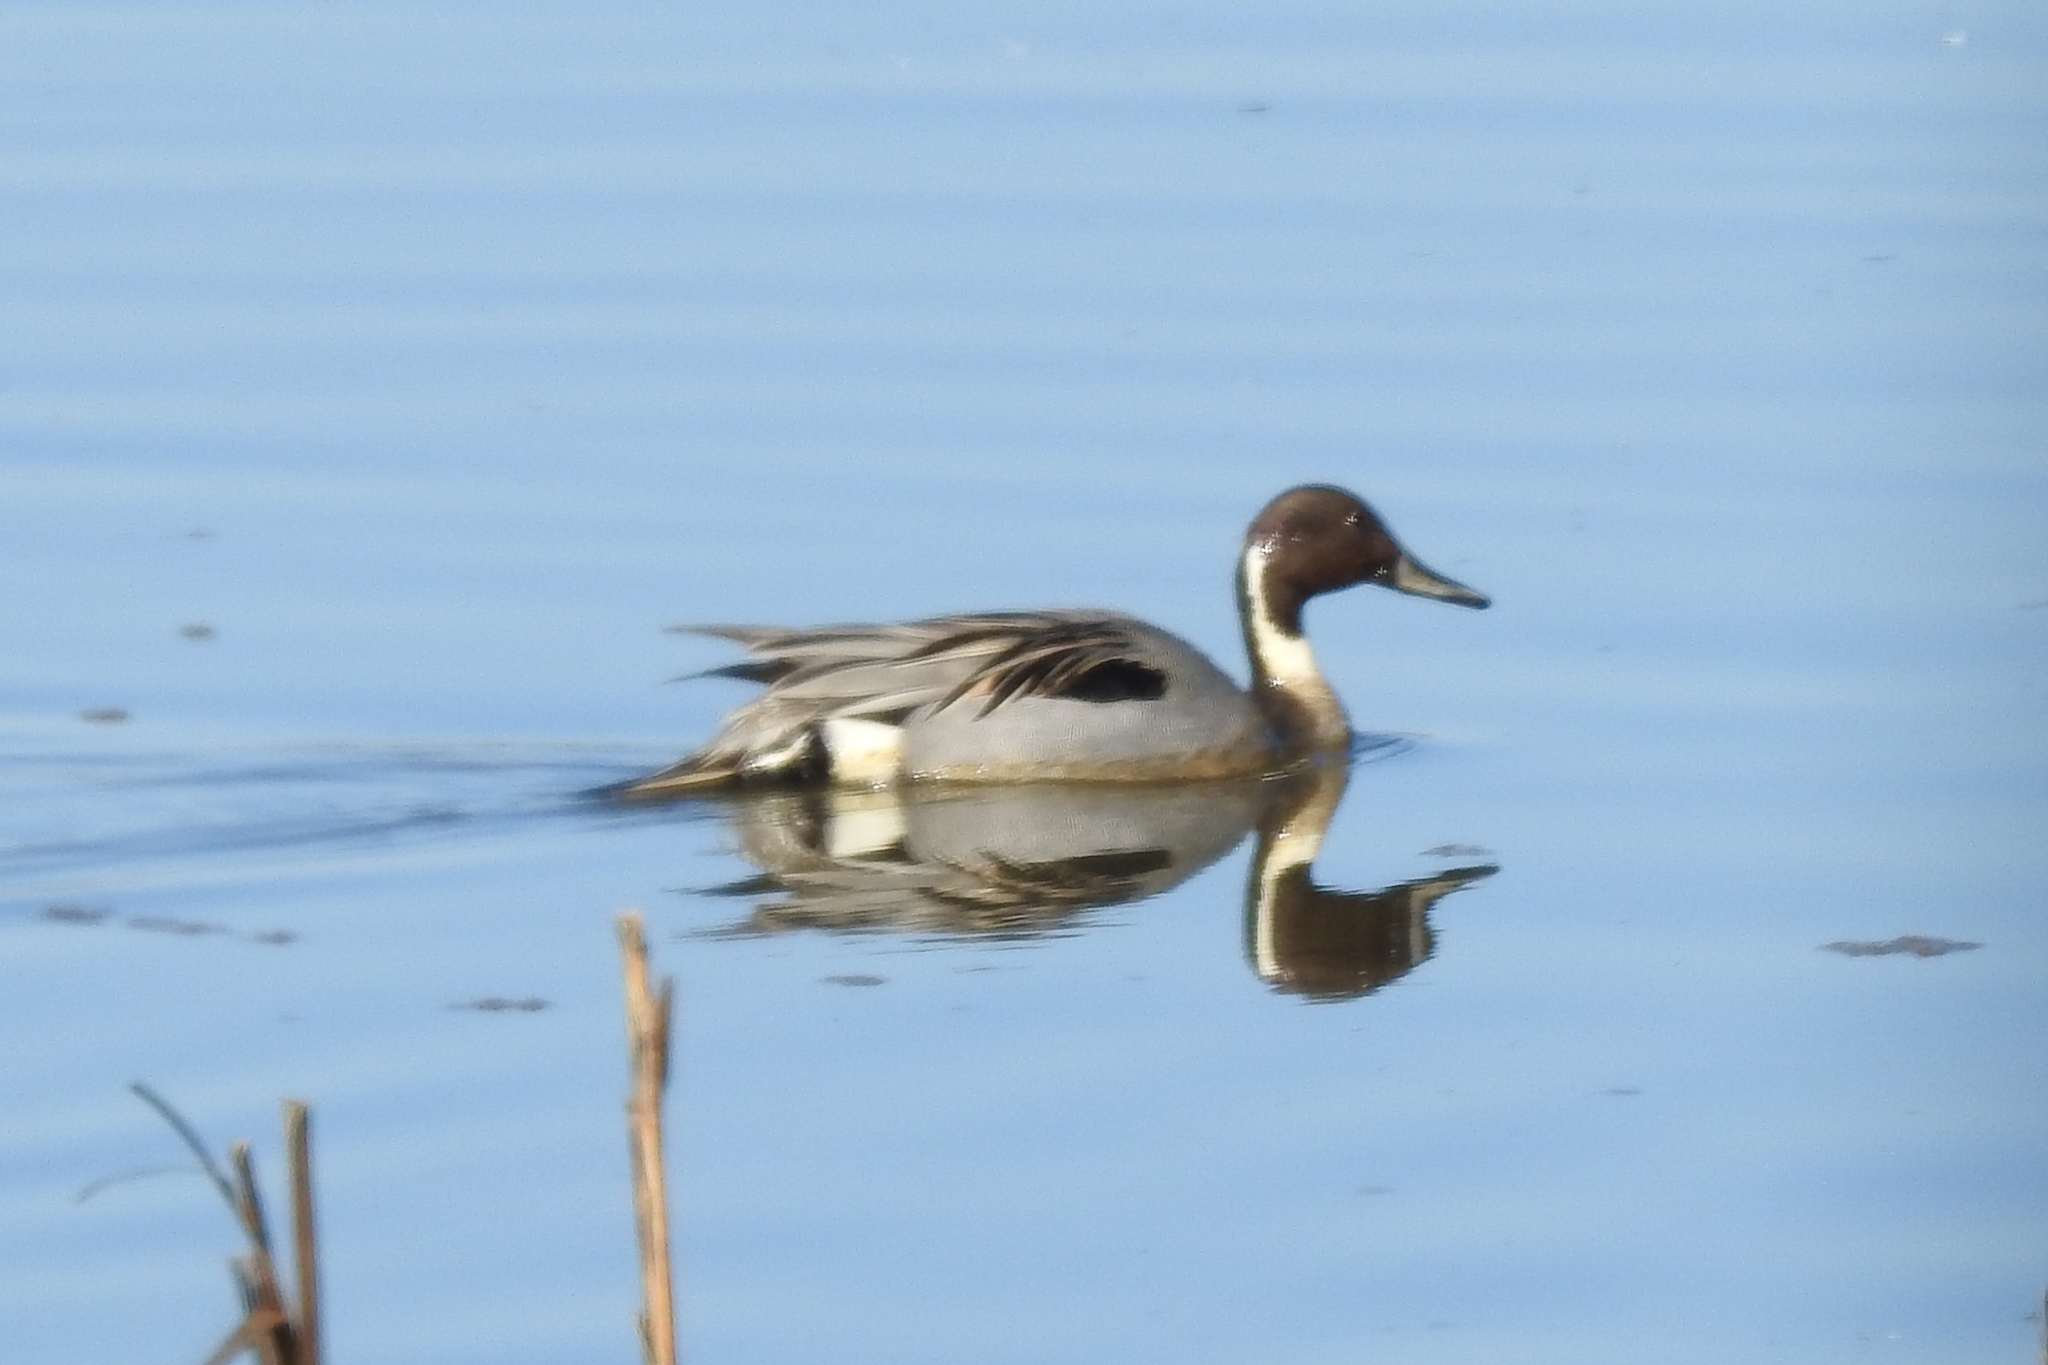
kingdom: Animalia
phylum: Chordata
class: Aves
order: Anseriformes
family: Anatidae
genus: Anas
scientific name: Anas acuta
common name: Northern pintail
